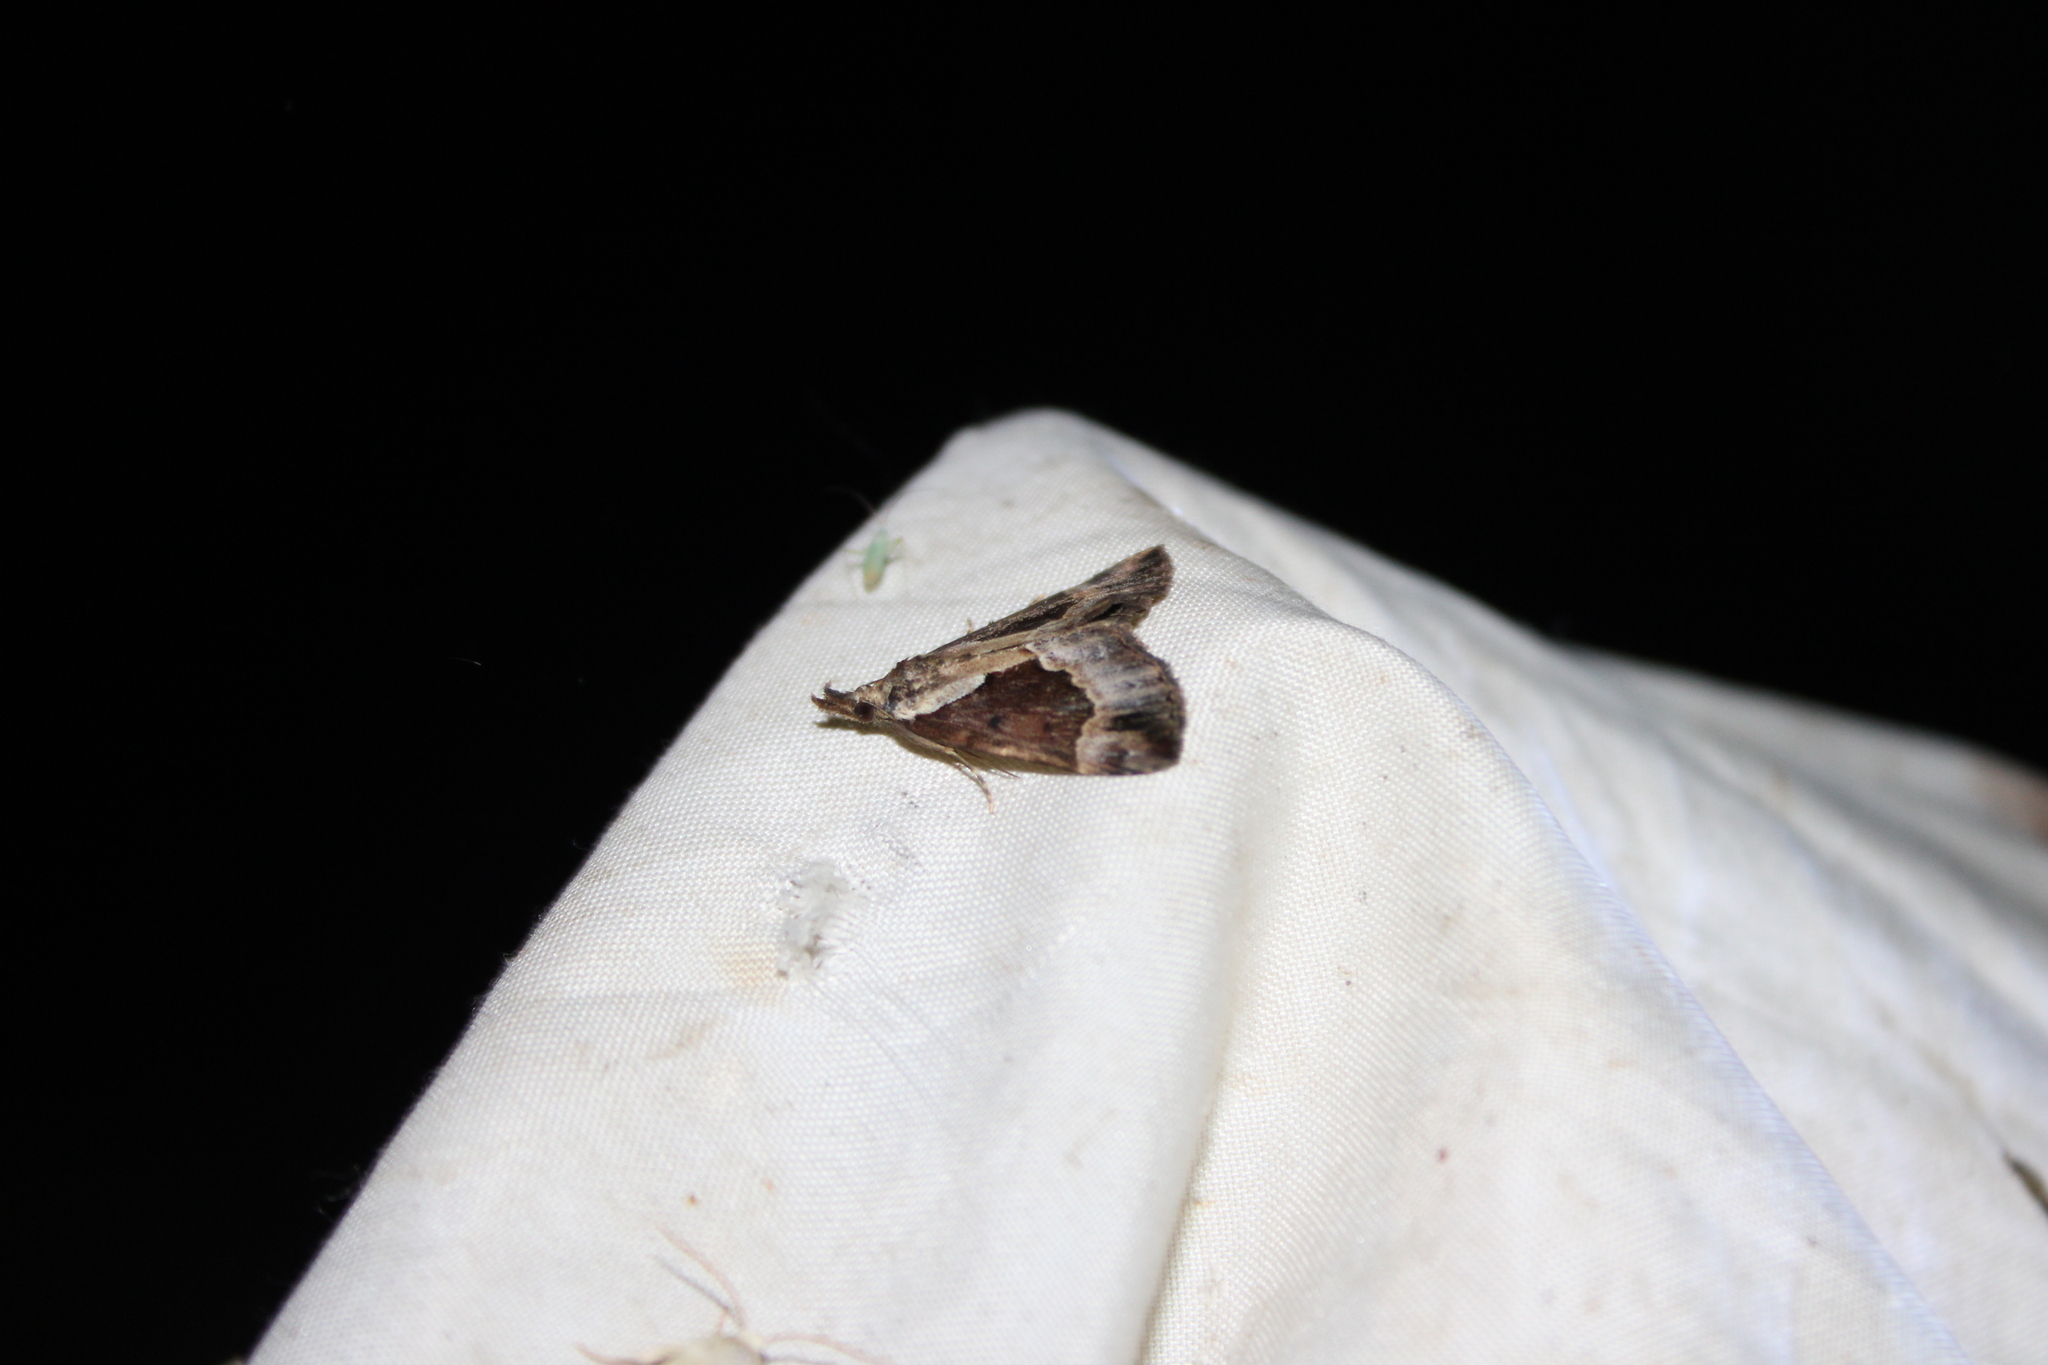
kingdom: Animalia
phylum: Arthropoda
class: Insecta
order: Lepidoptera
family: Erebidae
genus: Hypena
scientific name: Hypena baltimoralis
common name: Baltimore snout
